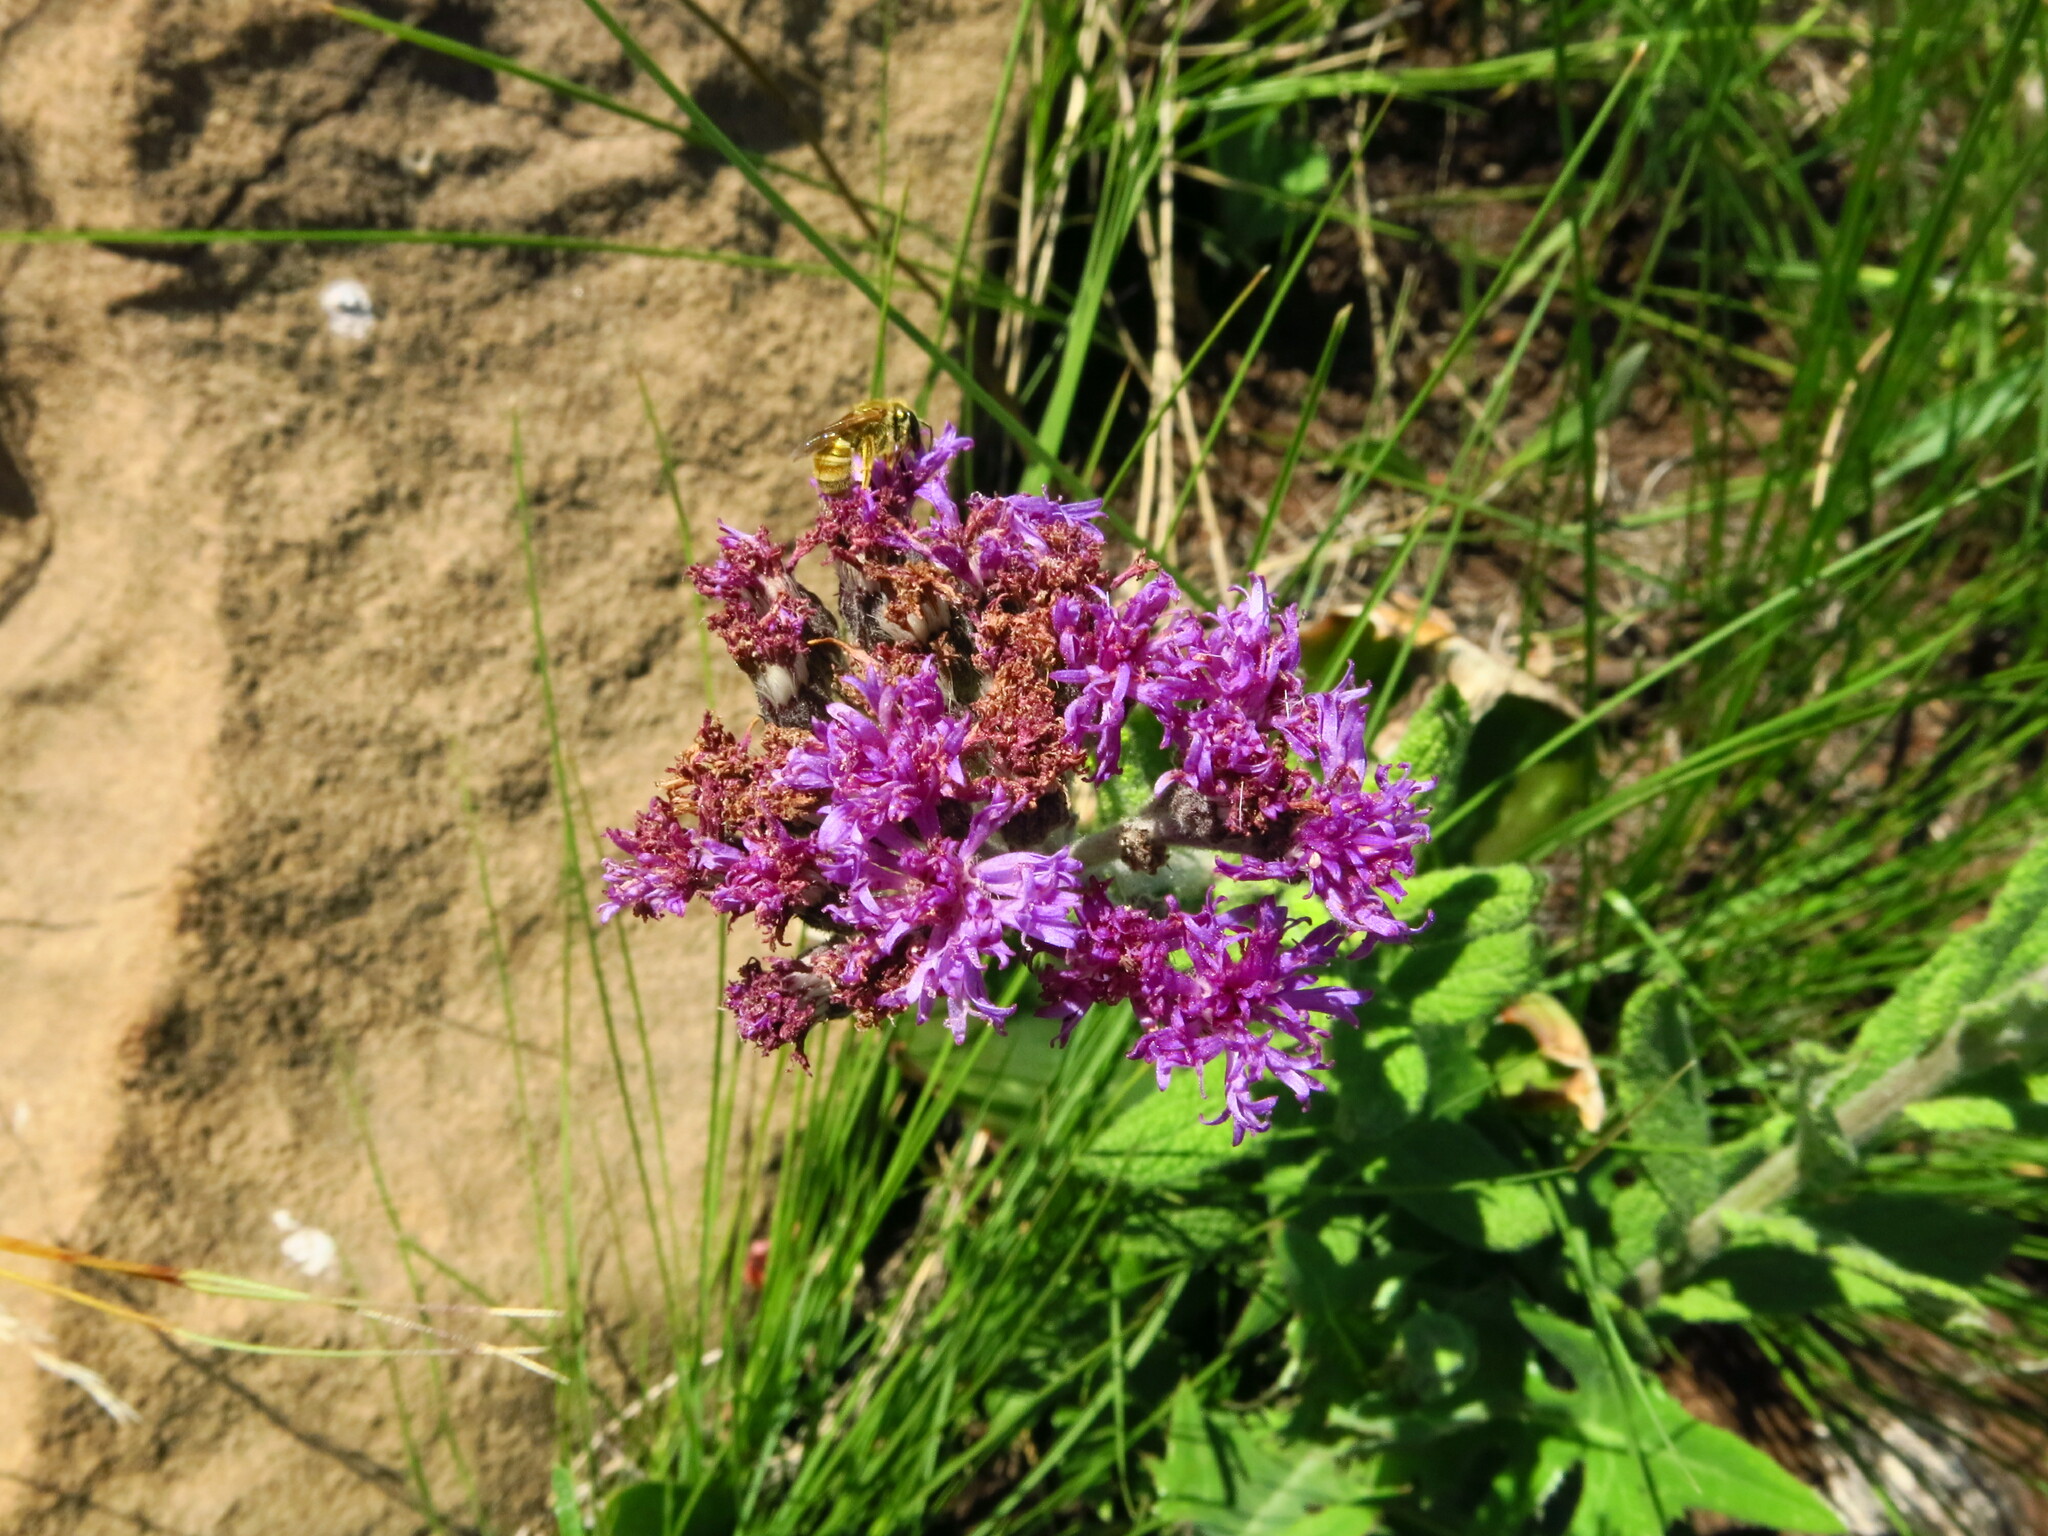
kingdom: Plantae
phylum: Tracheophyta
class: Magnoliopsida
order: Asterales
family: Asteraceae
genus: Hilliardiella
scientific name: Hilliardiella hirsuta
